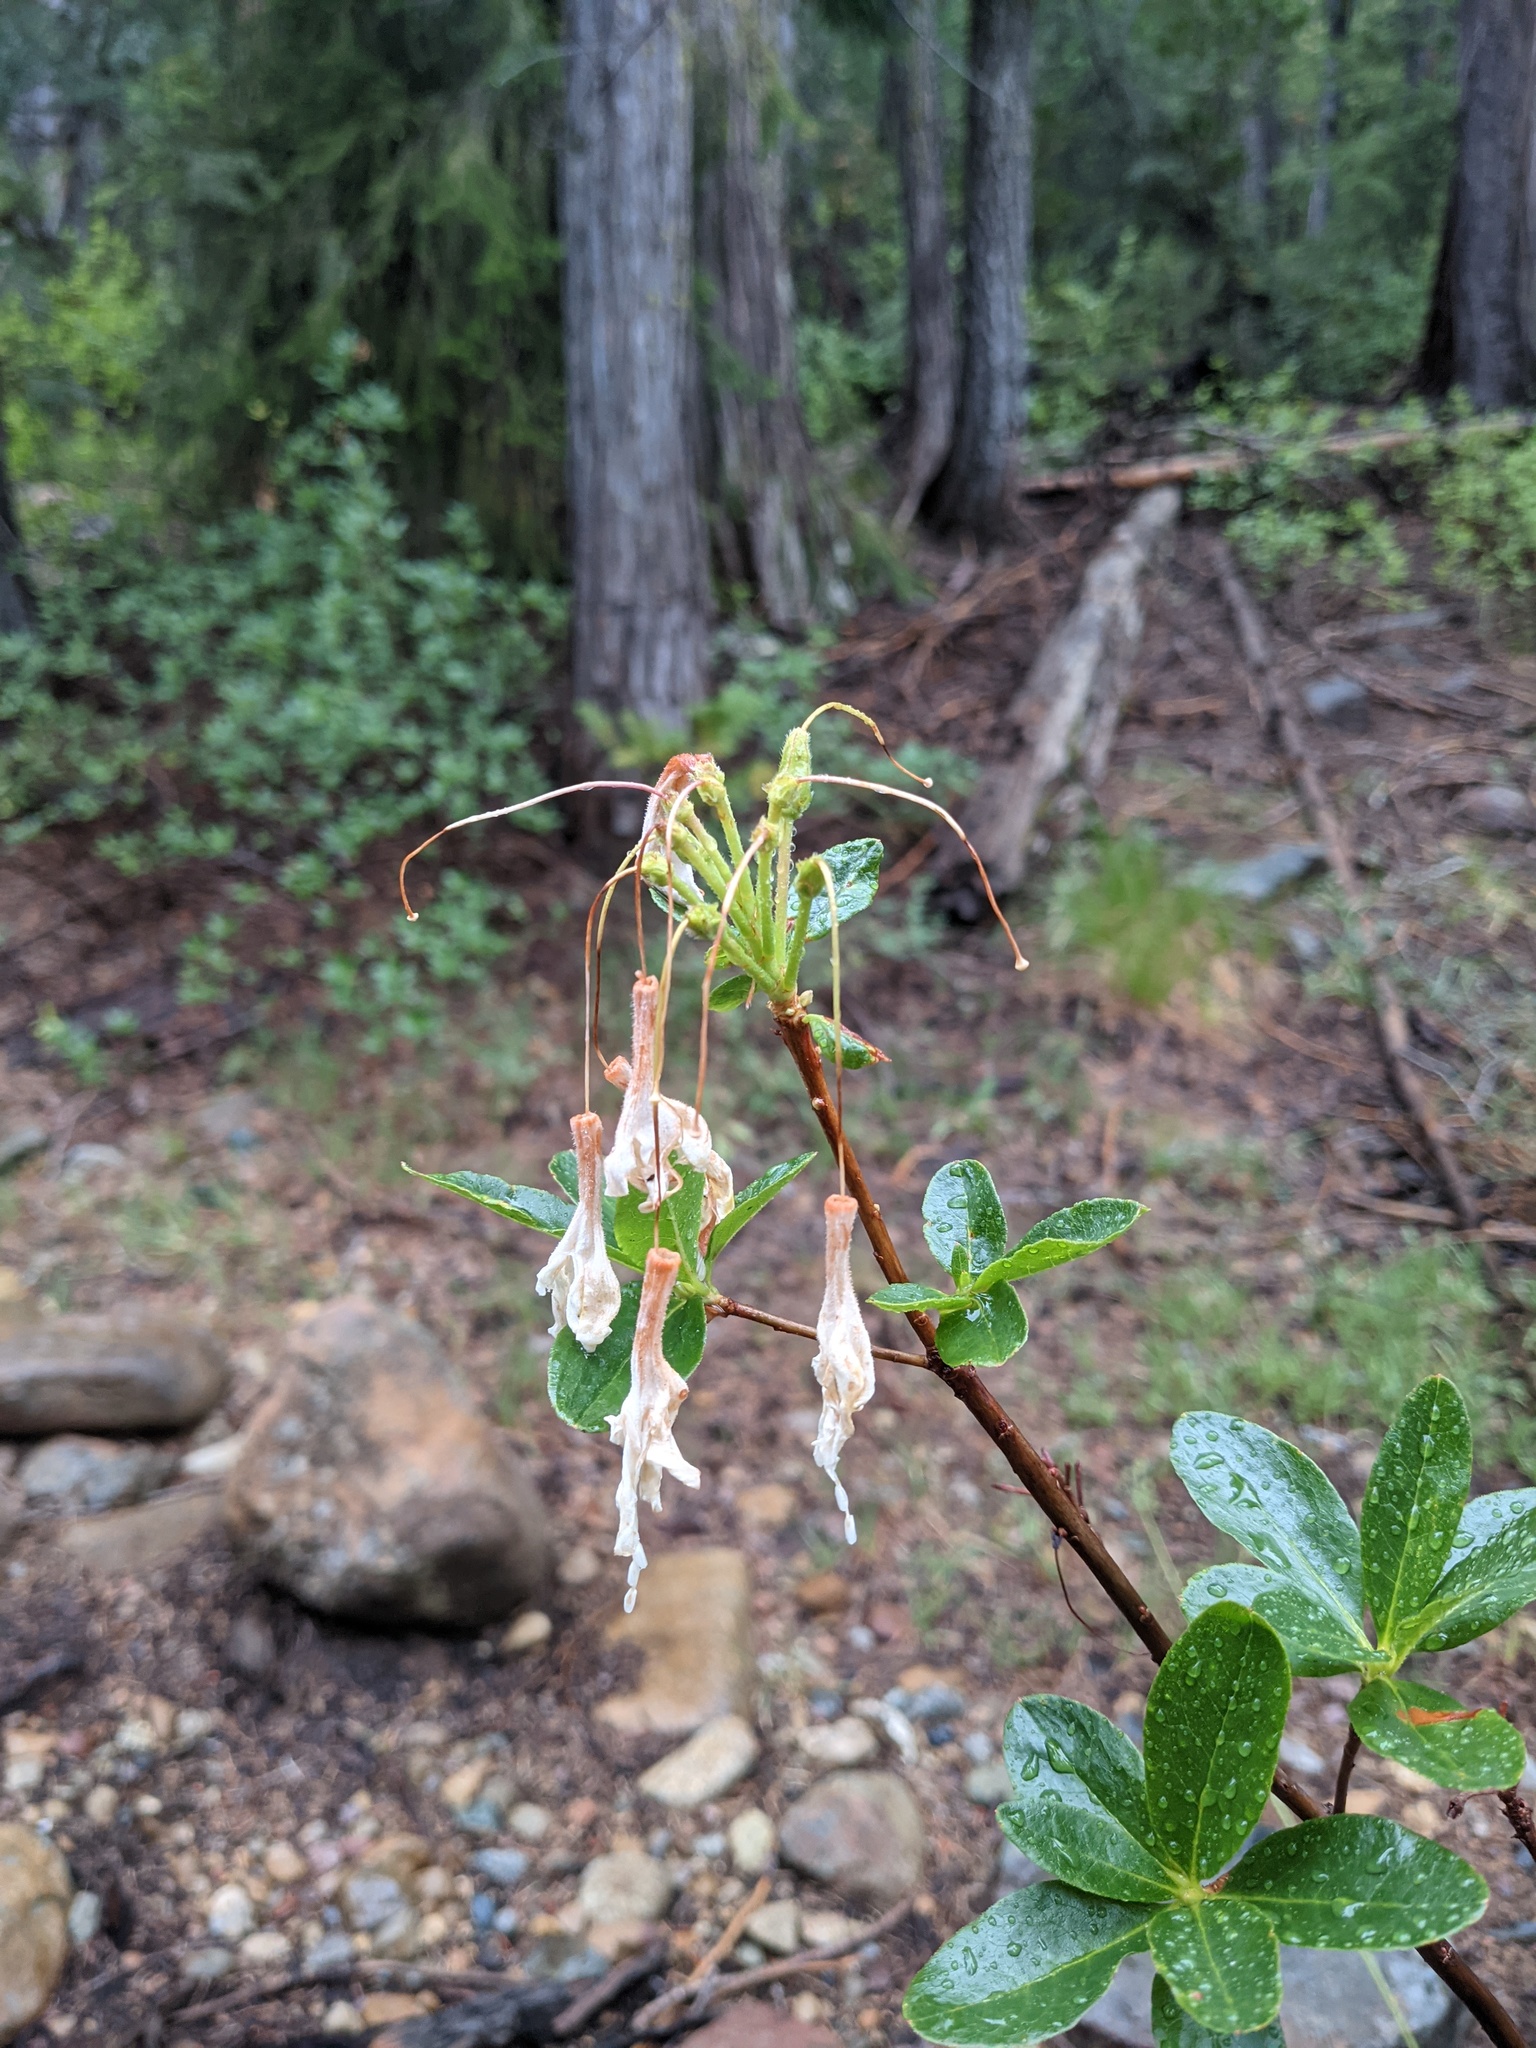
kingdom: Plantae
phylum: Tracheophyta
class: Magnoliopsida
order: Ericales
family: Ericaceae
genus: Rhododendron
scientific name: Rhododendron occidentale
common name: Western azalea
